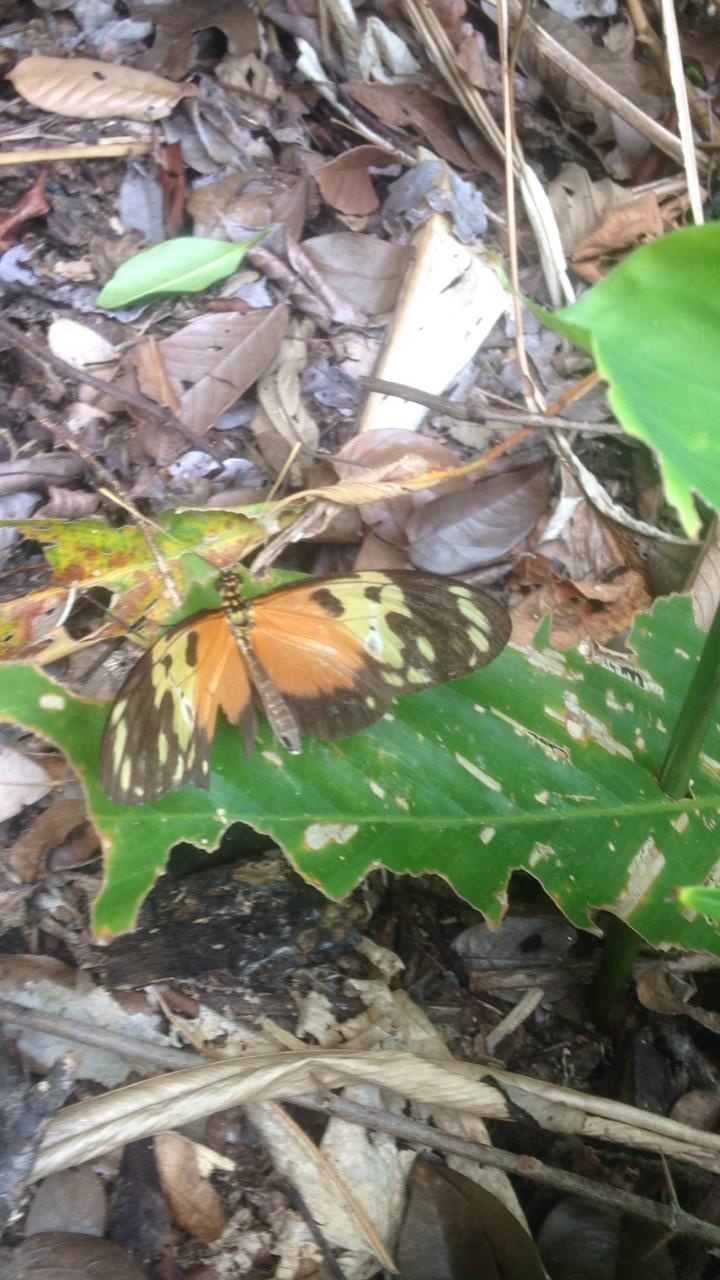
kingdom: Animalia
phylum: Arthropoda
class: Insecta
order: Lepidoptera
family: Nymphalidae
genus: Heliconius
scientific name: Heliconius hecale
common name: Tiger longwing
